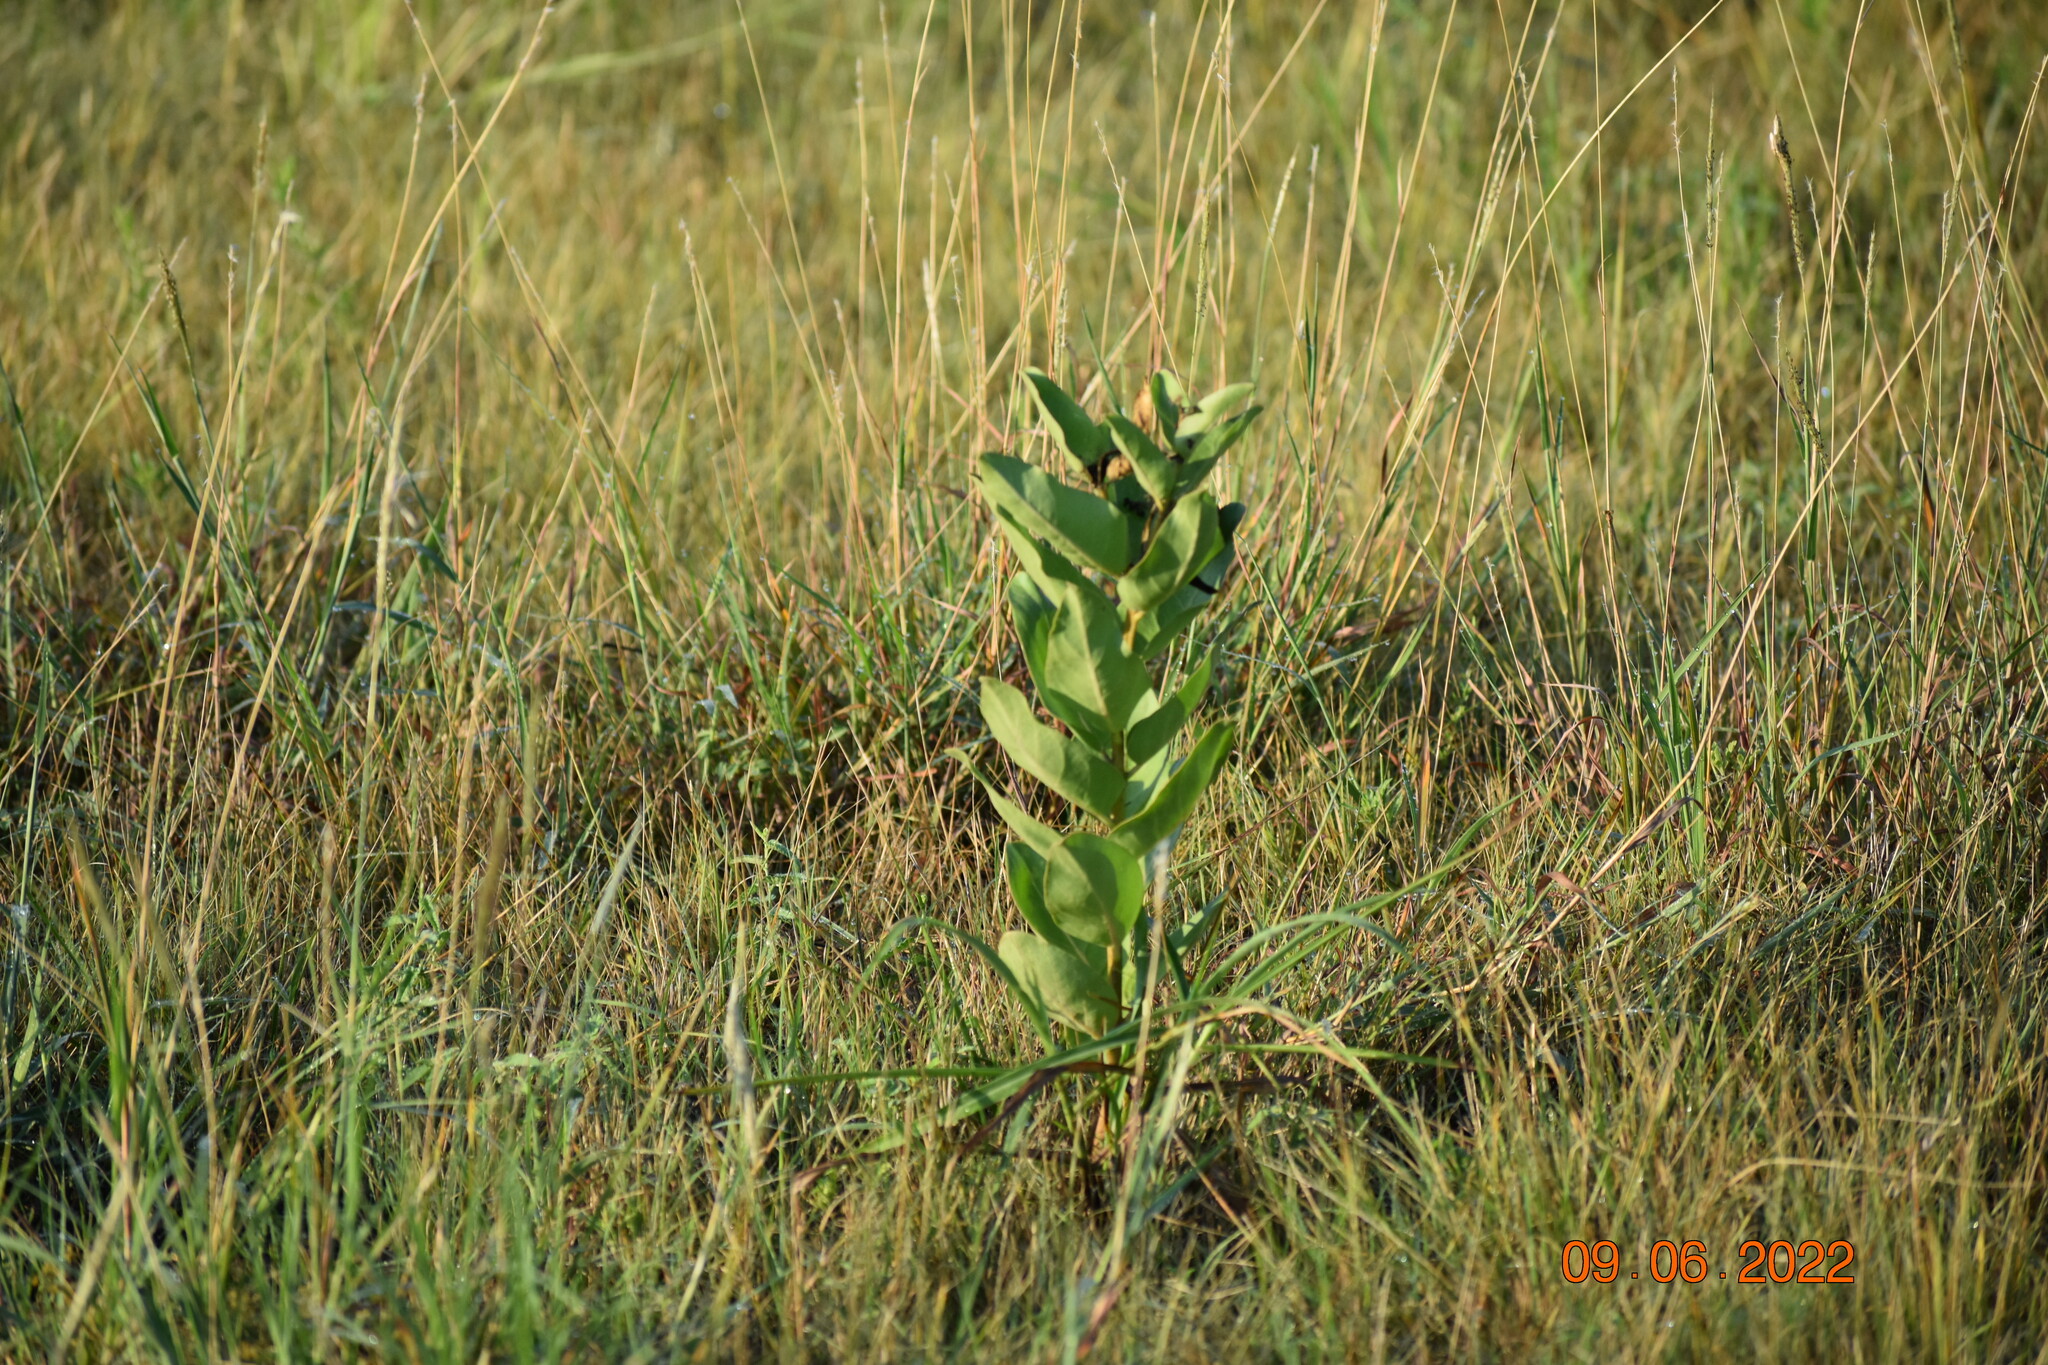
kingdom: Plantae
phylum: Tracheophyta
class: Magnoliopsida
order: Gentianales
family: Apocynaceae
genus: Asclepias
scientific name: Asclepias viridis
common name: Antelope-horns
